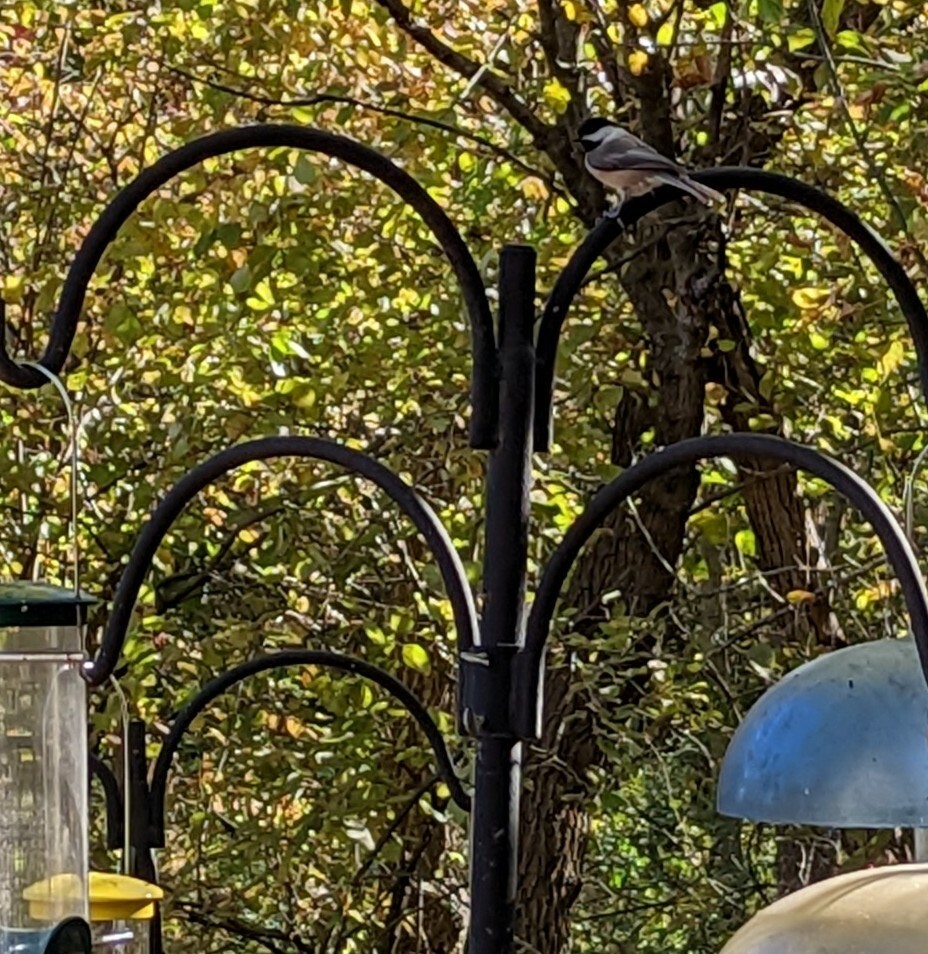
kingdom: Animalia
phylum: Chordata
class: Aves
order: Passeriformes
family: Paridae
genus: Poecile
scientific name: Poecile carolinensis
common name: Carolina chickadee
